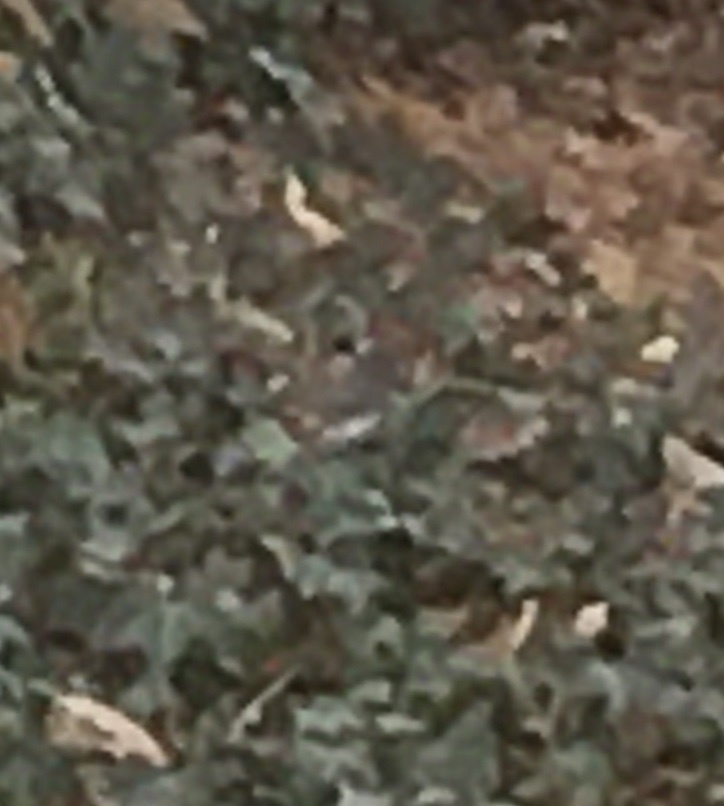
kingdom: Animalia
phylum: Chordata
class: Aves
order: Passeriformes
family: Passerellidae
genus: Junco
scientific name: Junco hyemalis
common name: Dark-eyed junco
